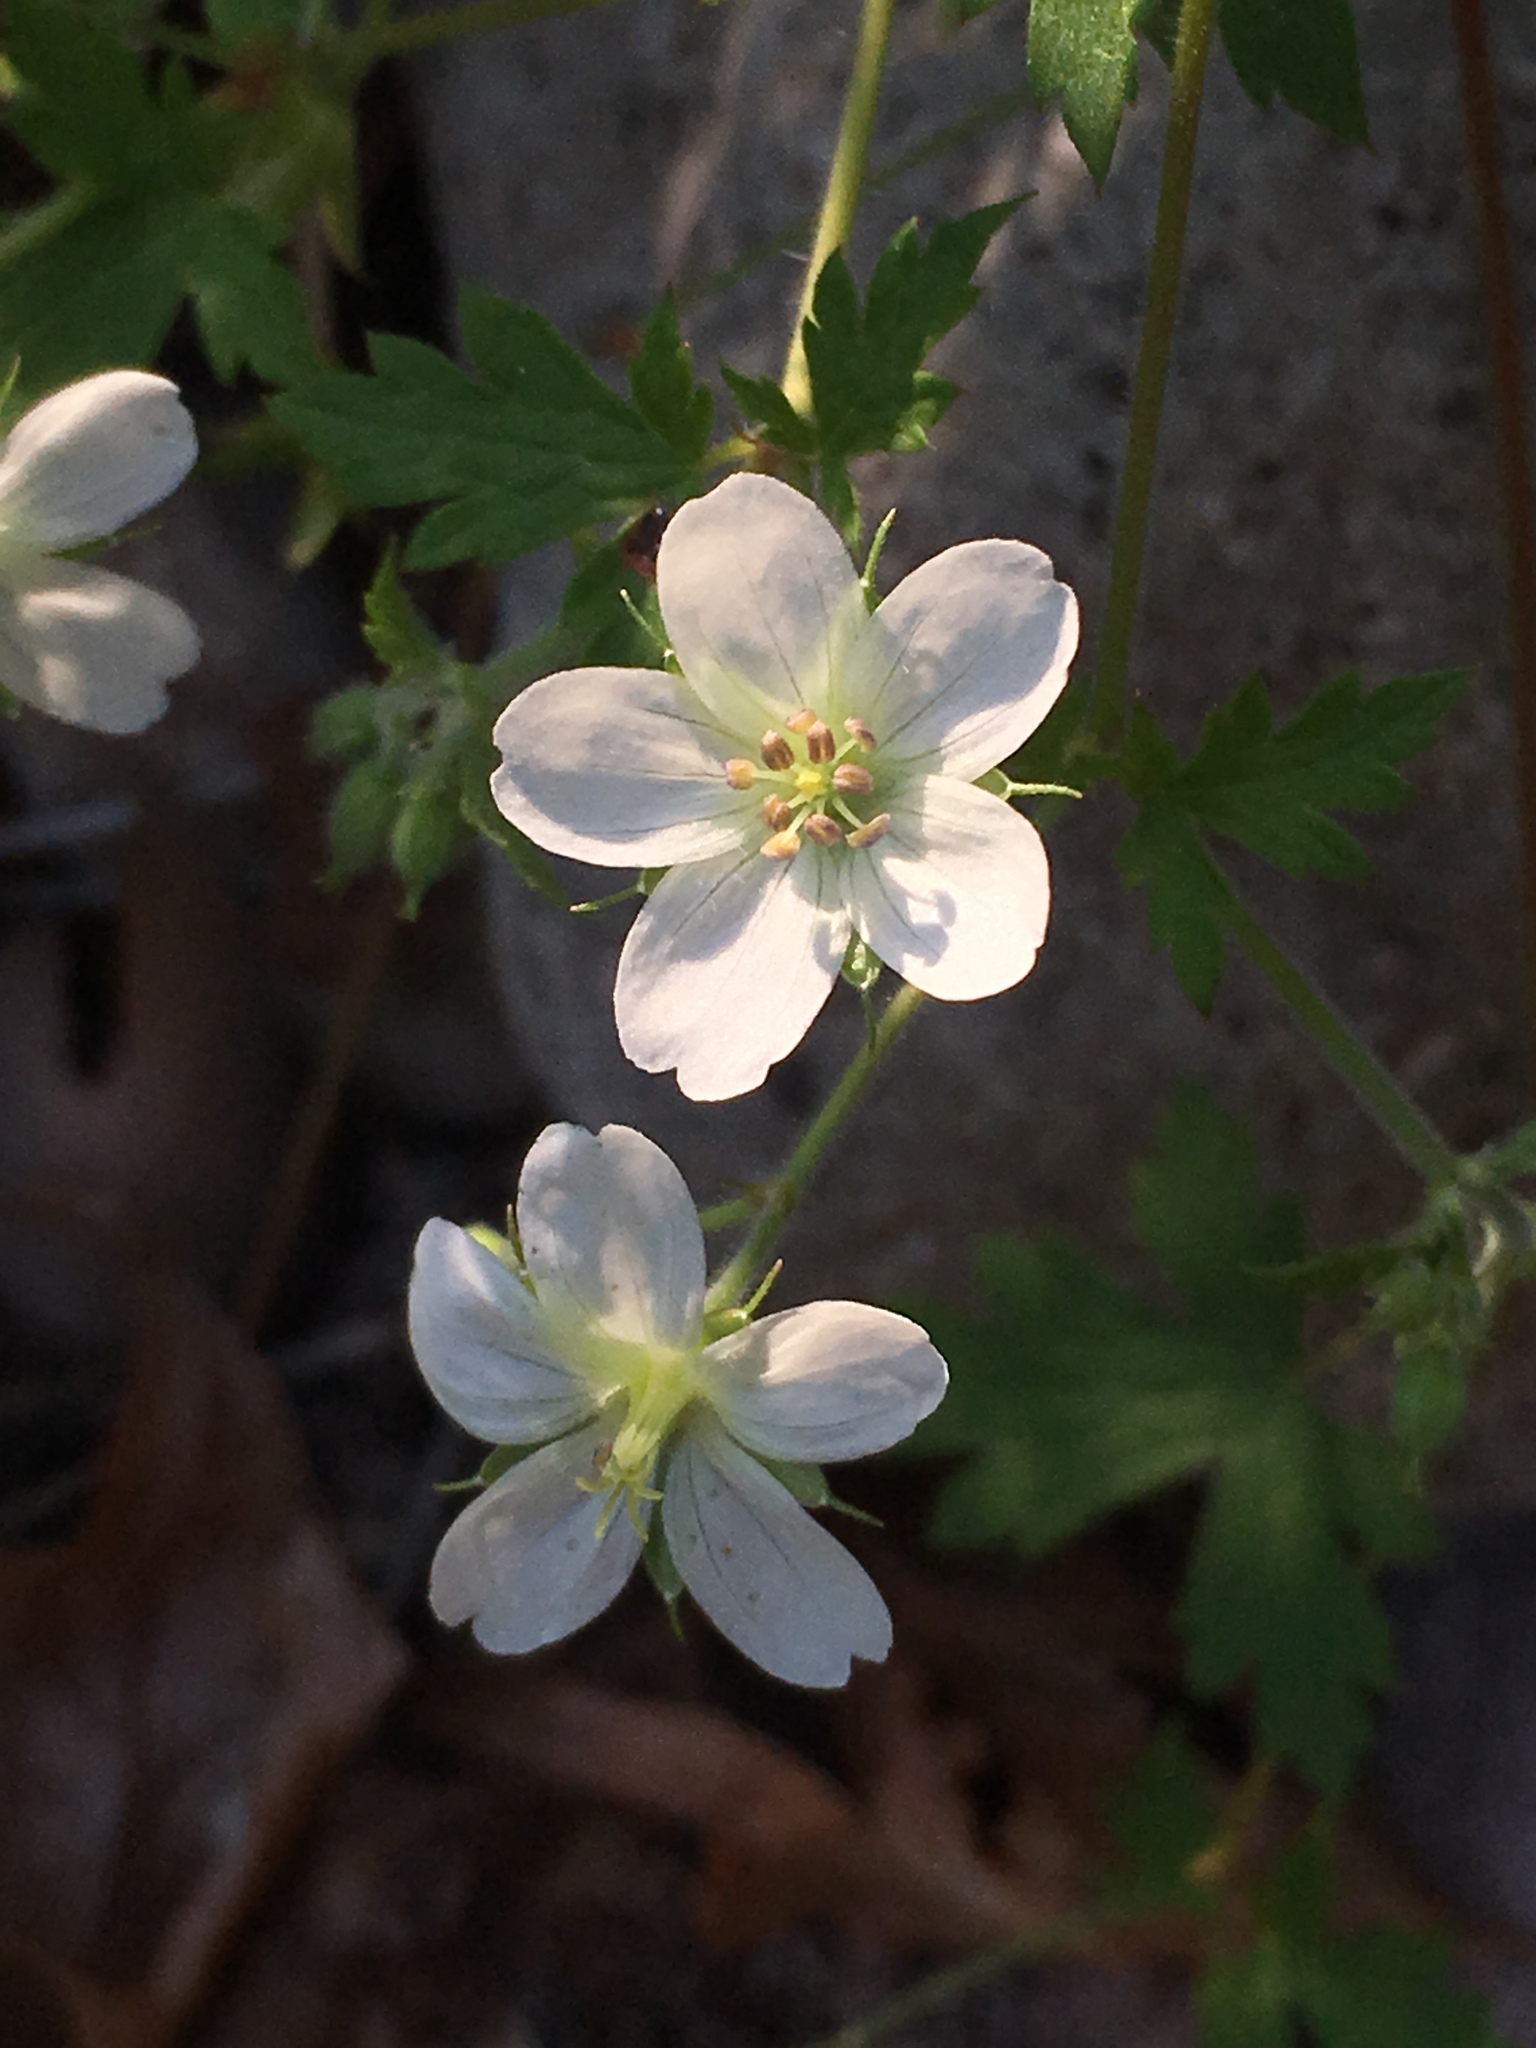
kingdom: Plantae
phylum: Tracheophyta
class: Magnoliopsida
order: Geraniales
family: Geraniaceae
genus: Geranium
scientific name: Geranium richardsonii
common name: Richardson's crane's-bill
